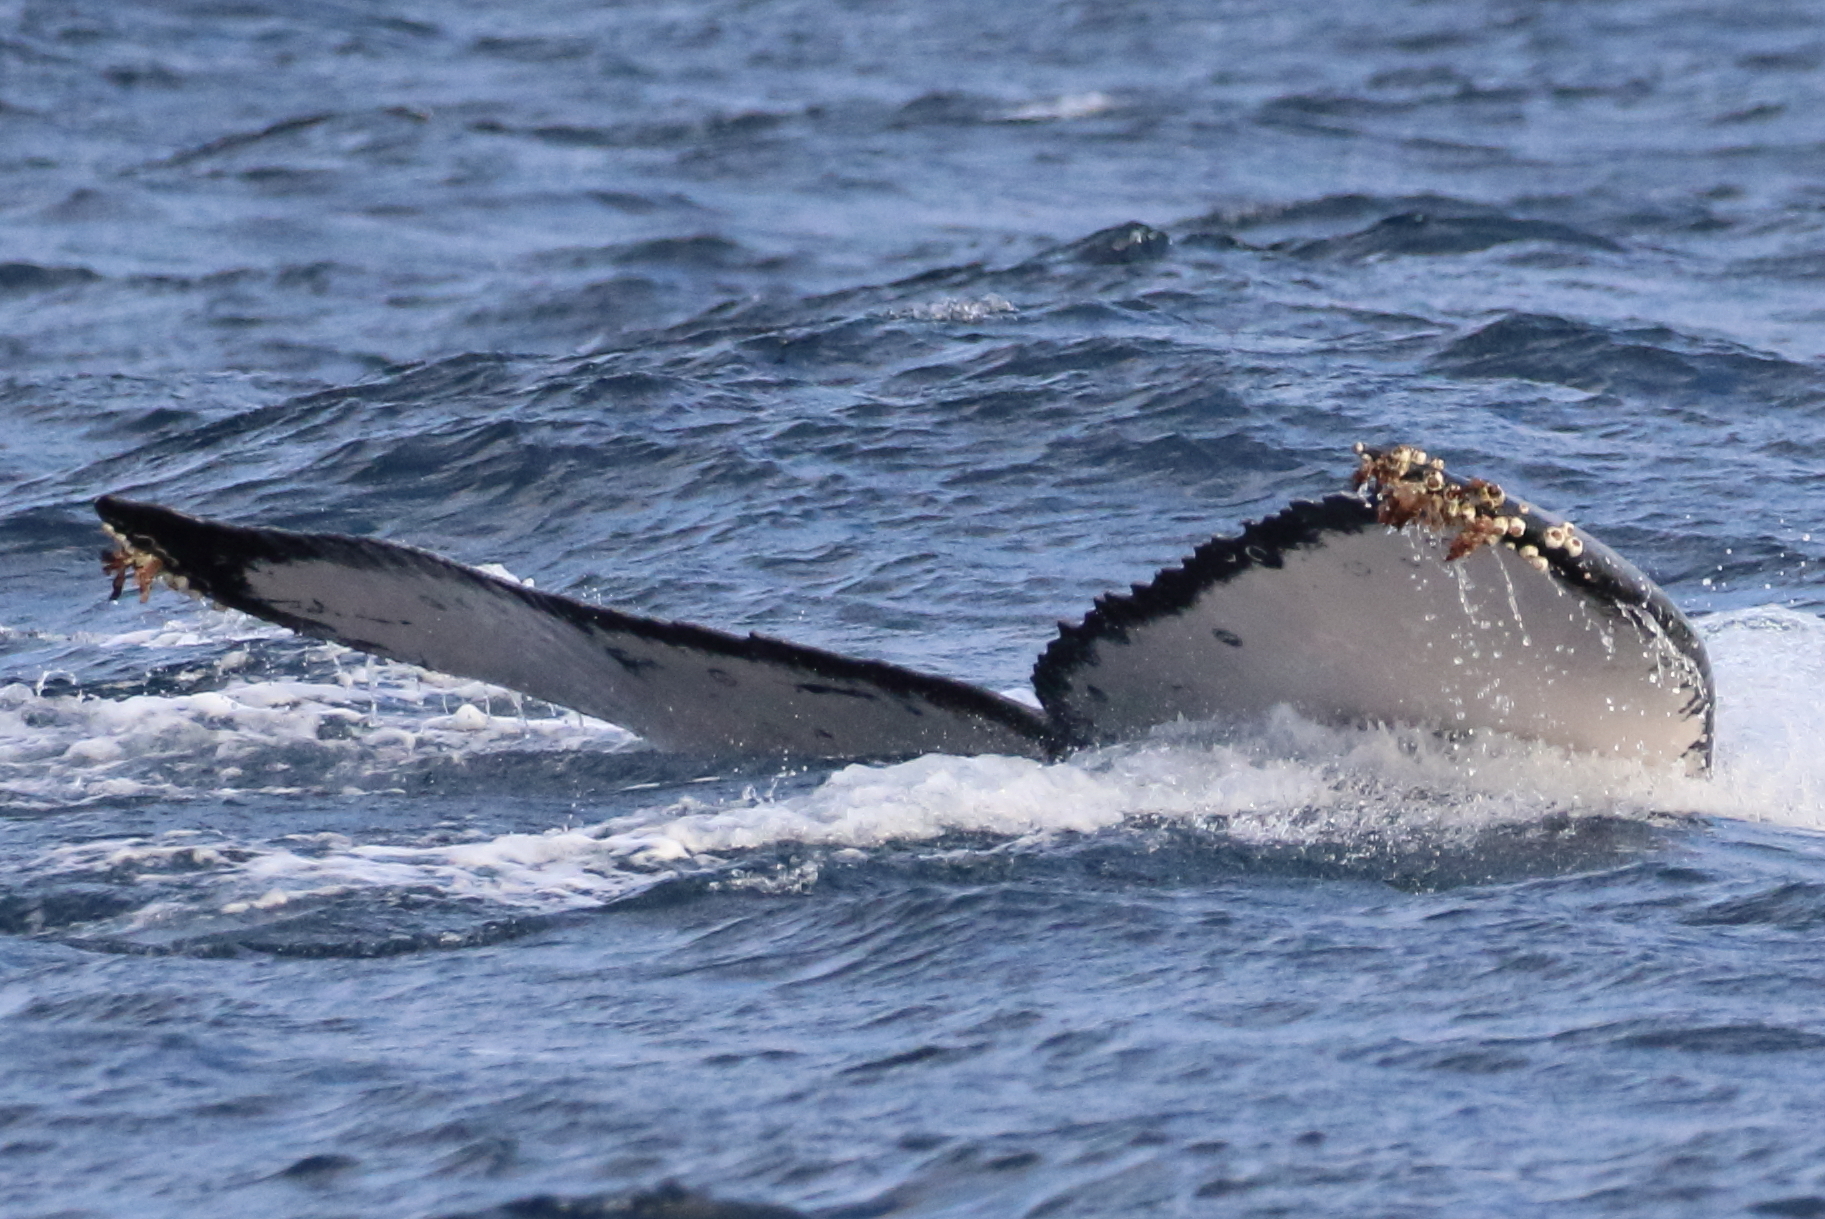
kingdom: Animalia
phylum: Arthropoda
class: Maxillopoda
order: Sessilia
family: Coronulidae
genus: Coronula
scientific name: Coronula diadema
